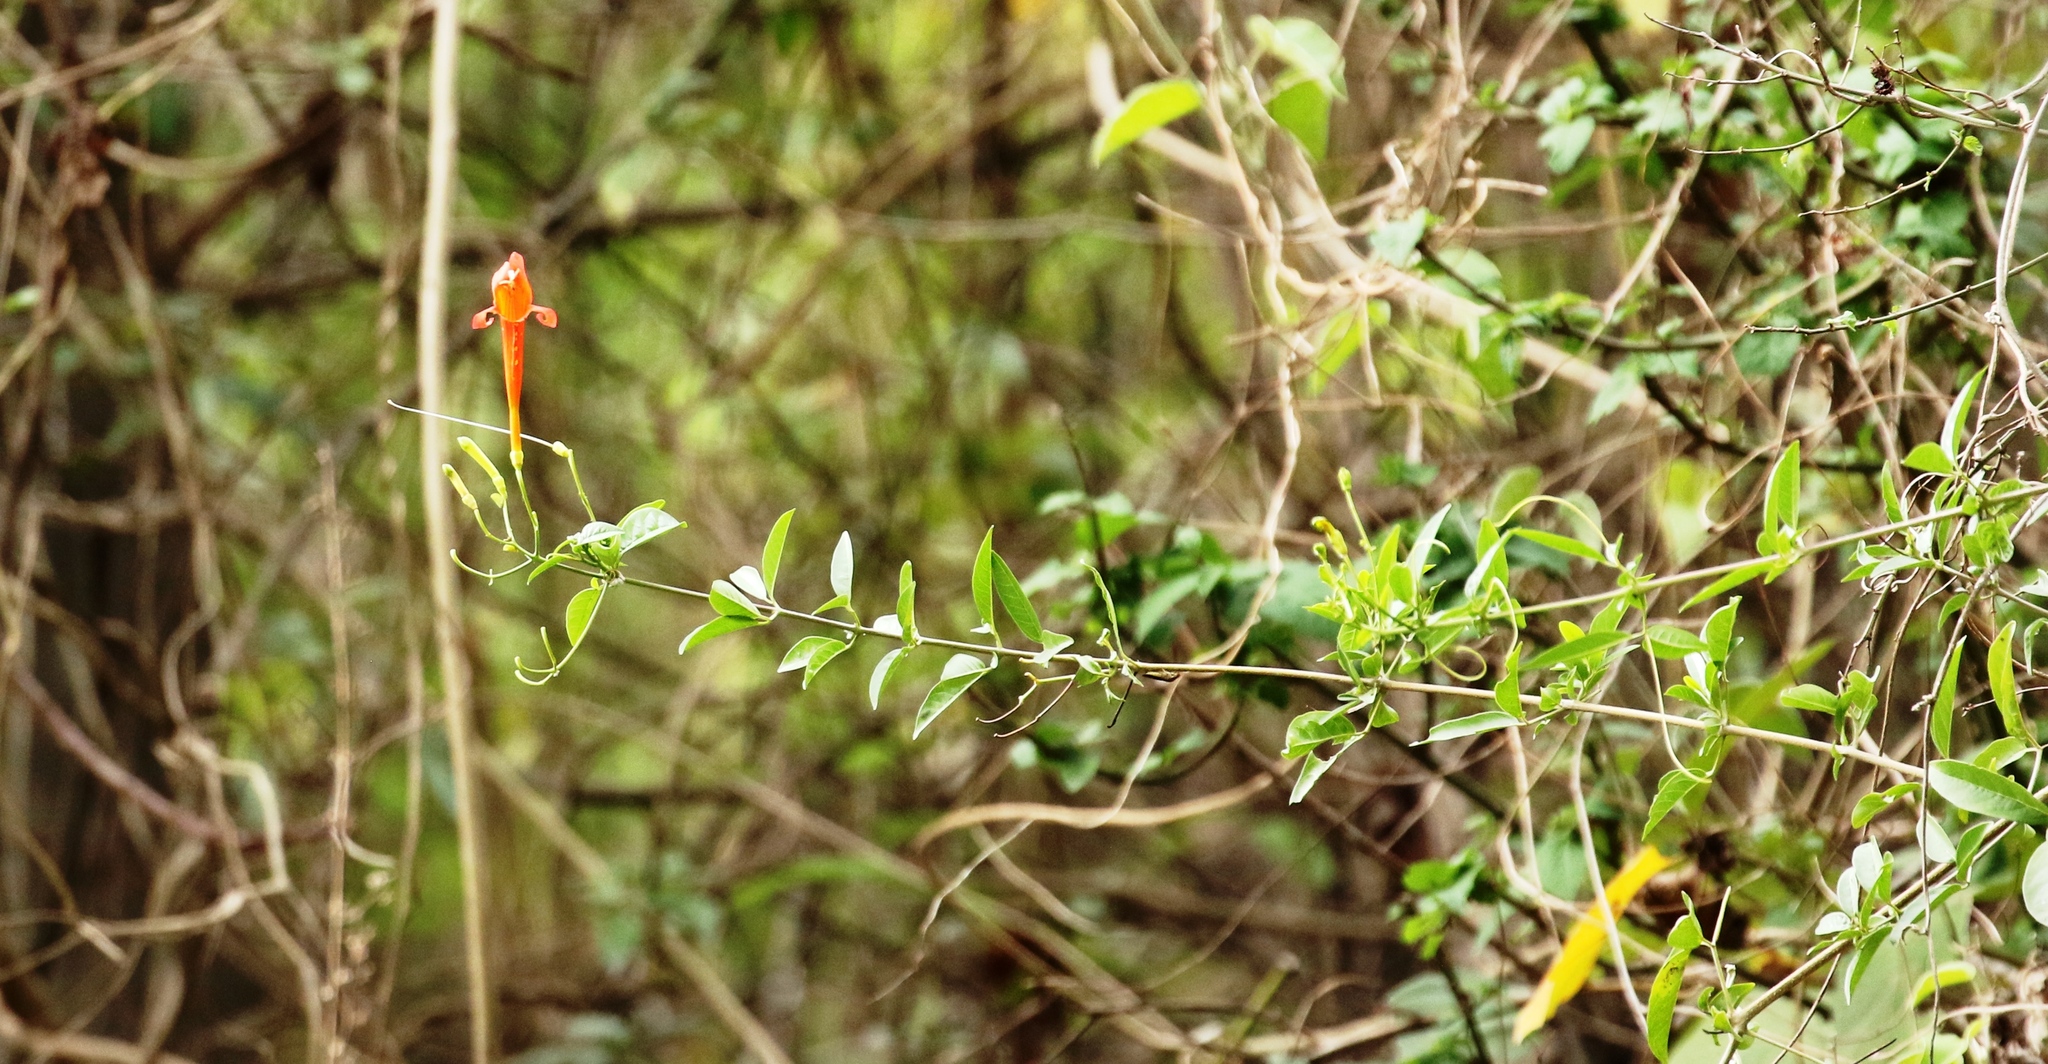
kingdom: Plantae
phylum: Tracheophyta
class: Magnoliopsida
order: Lamiales
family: Bignoniaceae
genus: Bignonia
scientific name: Bignonia longiflora
